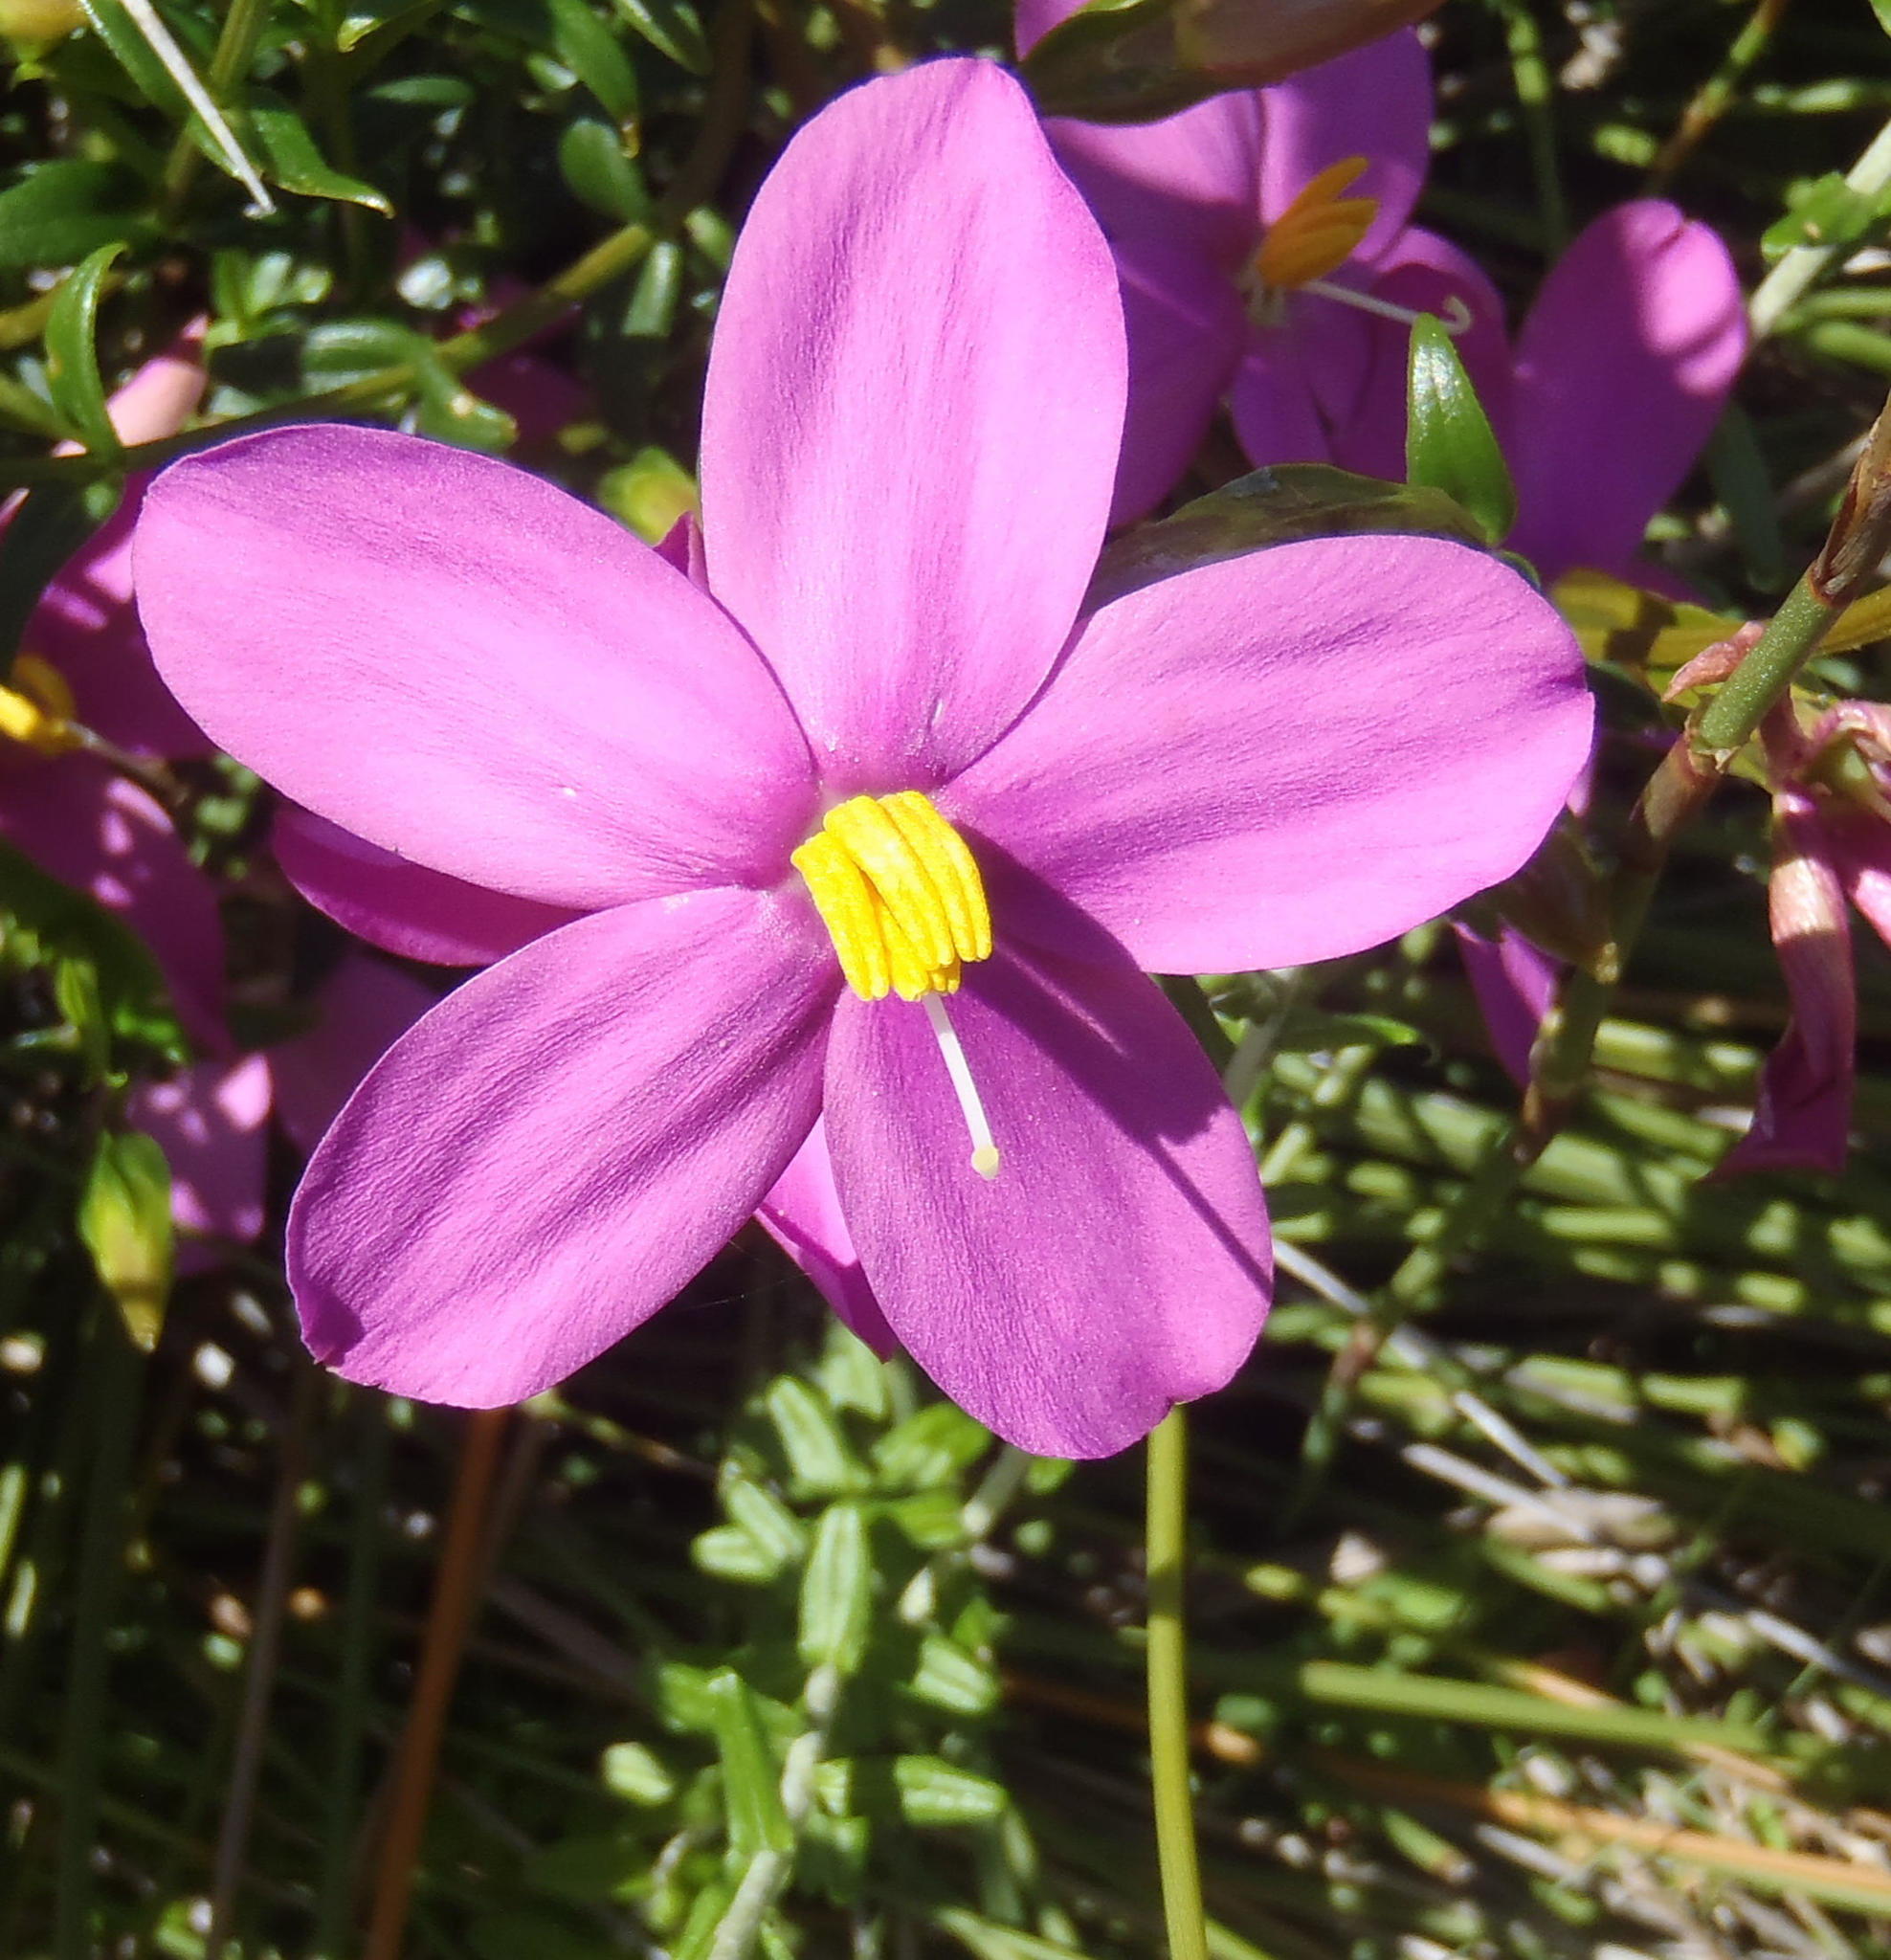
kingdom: Plantae
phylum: Tracheophyta
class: Magnoliopsida
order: Gentianales
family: Gentianaceae
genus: Chironia
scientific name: Chironia tetragona
